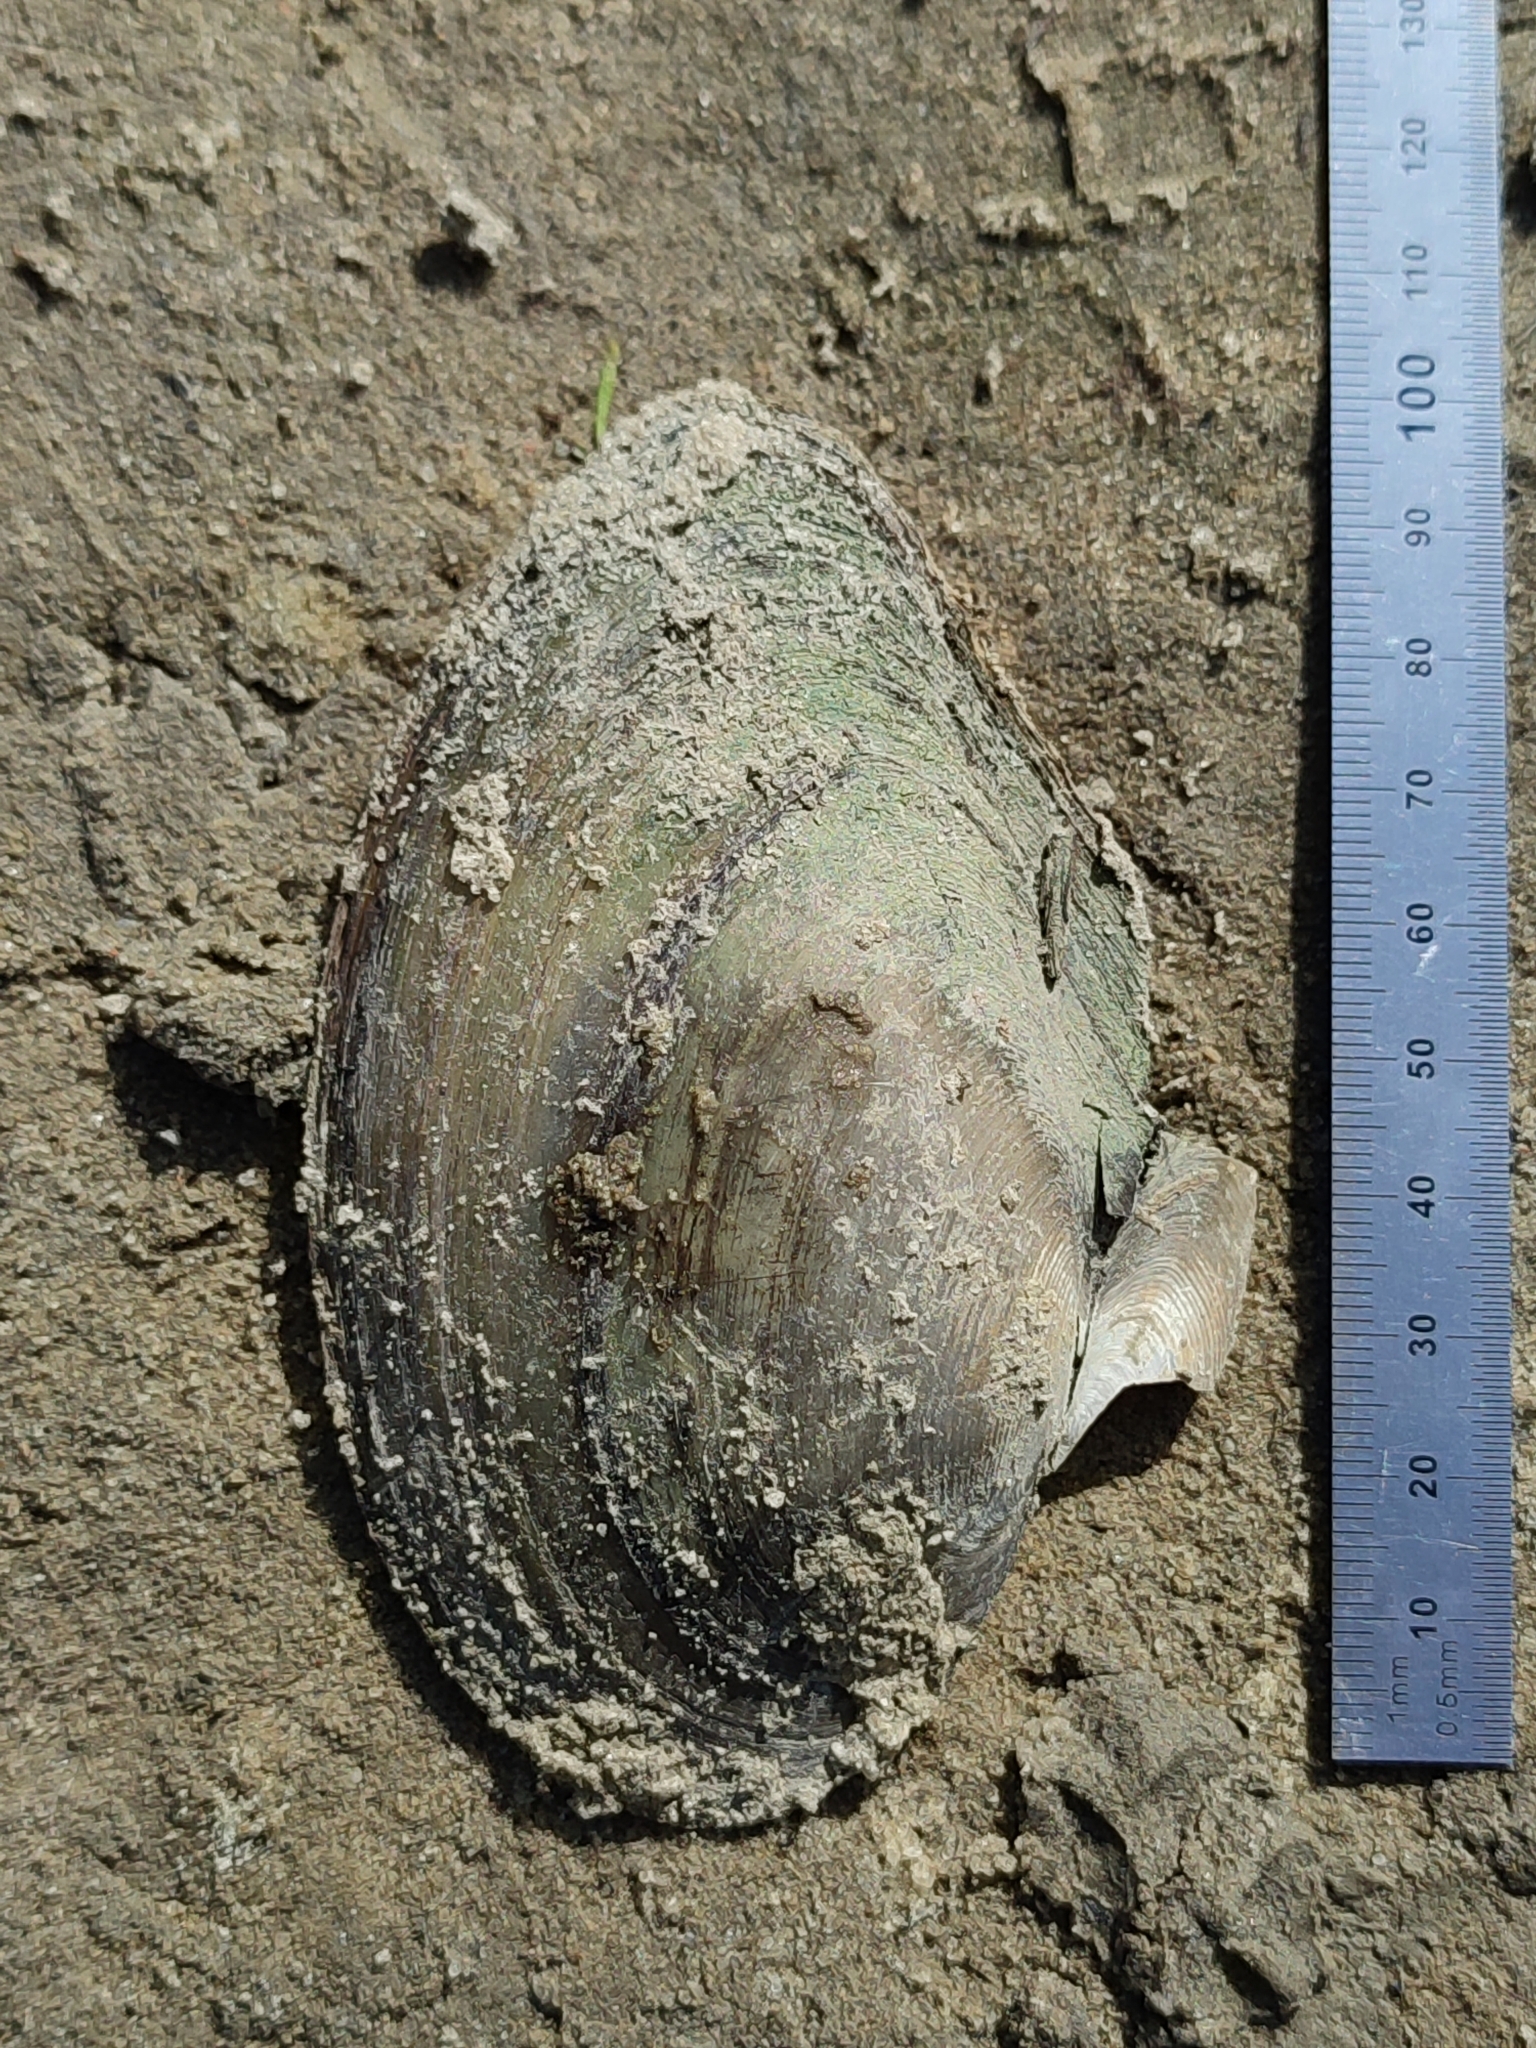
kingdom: Animalia
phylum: Mollusca
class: Bivalvia
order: Unionida
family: Unionidae
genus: Anodonta
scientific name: Anodonta anatina
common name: Duck mussel
